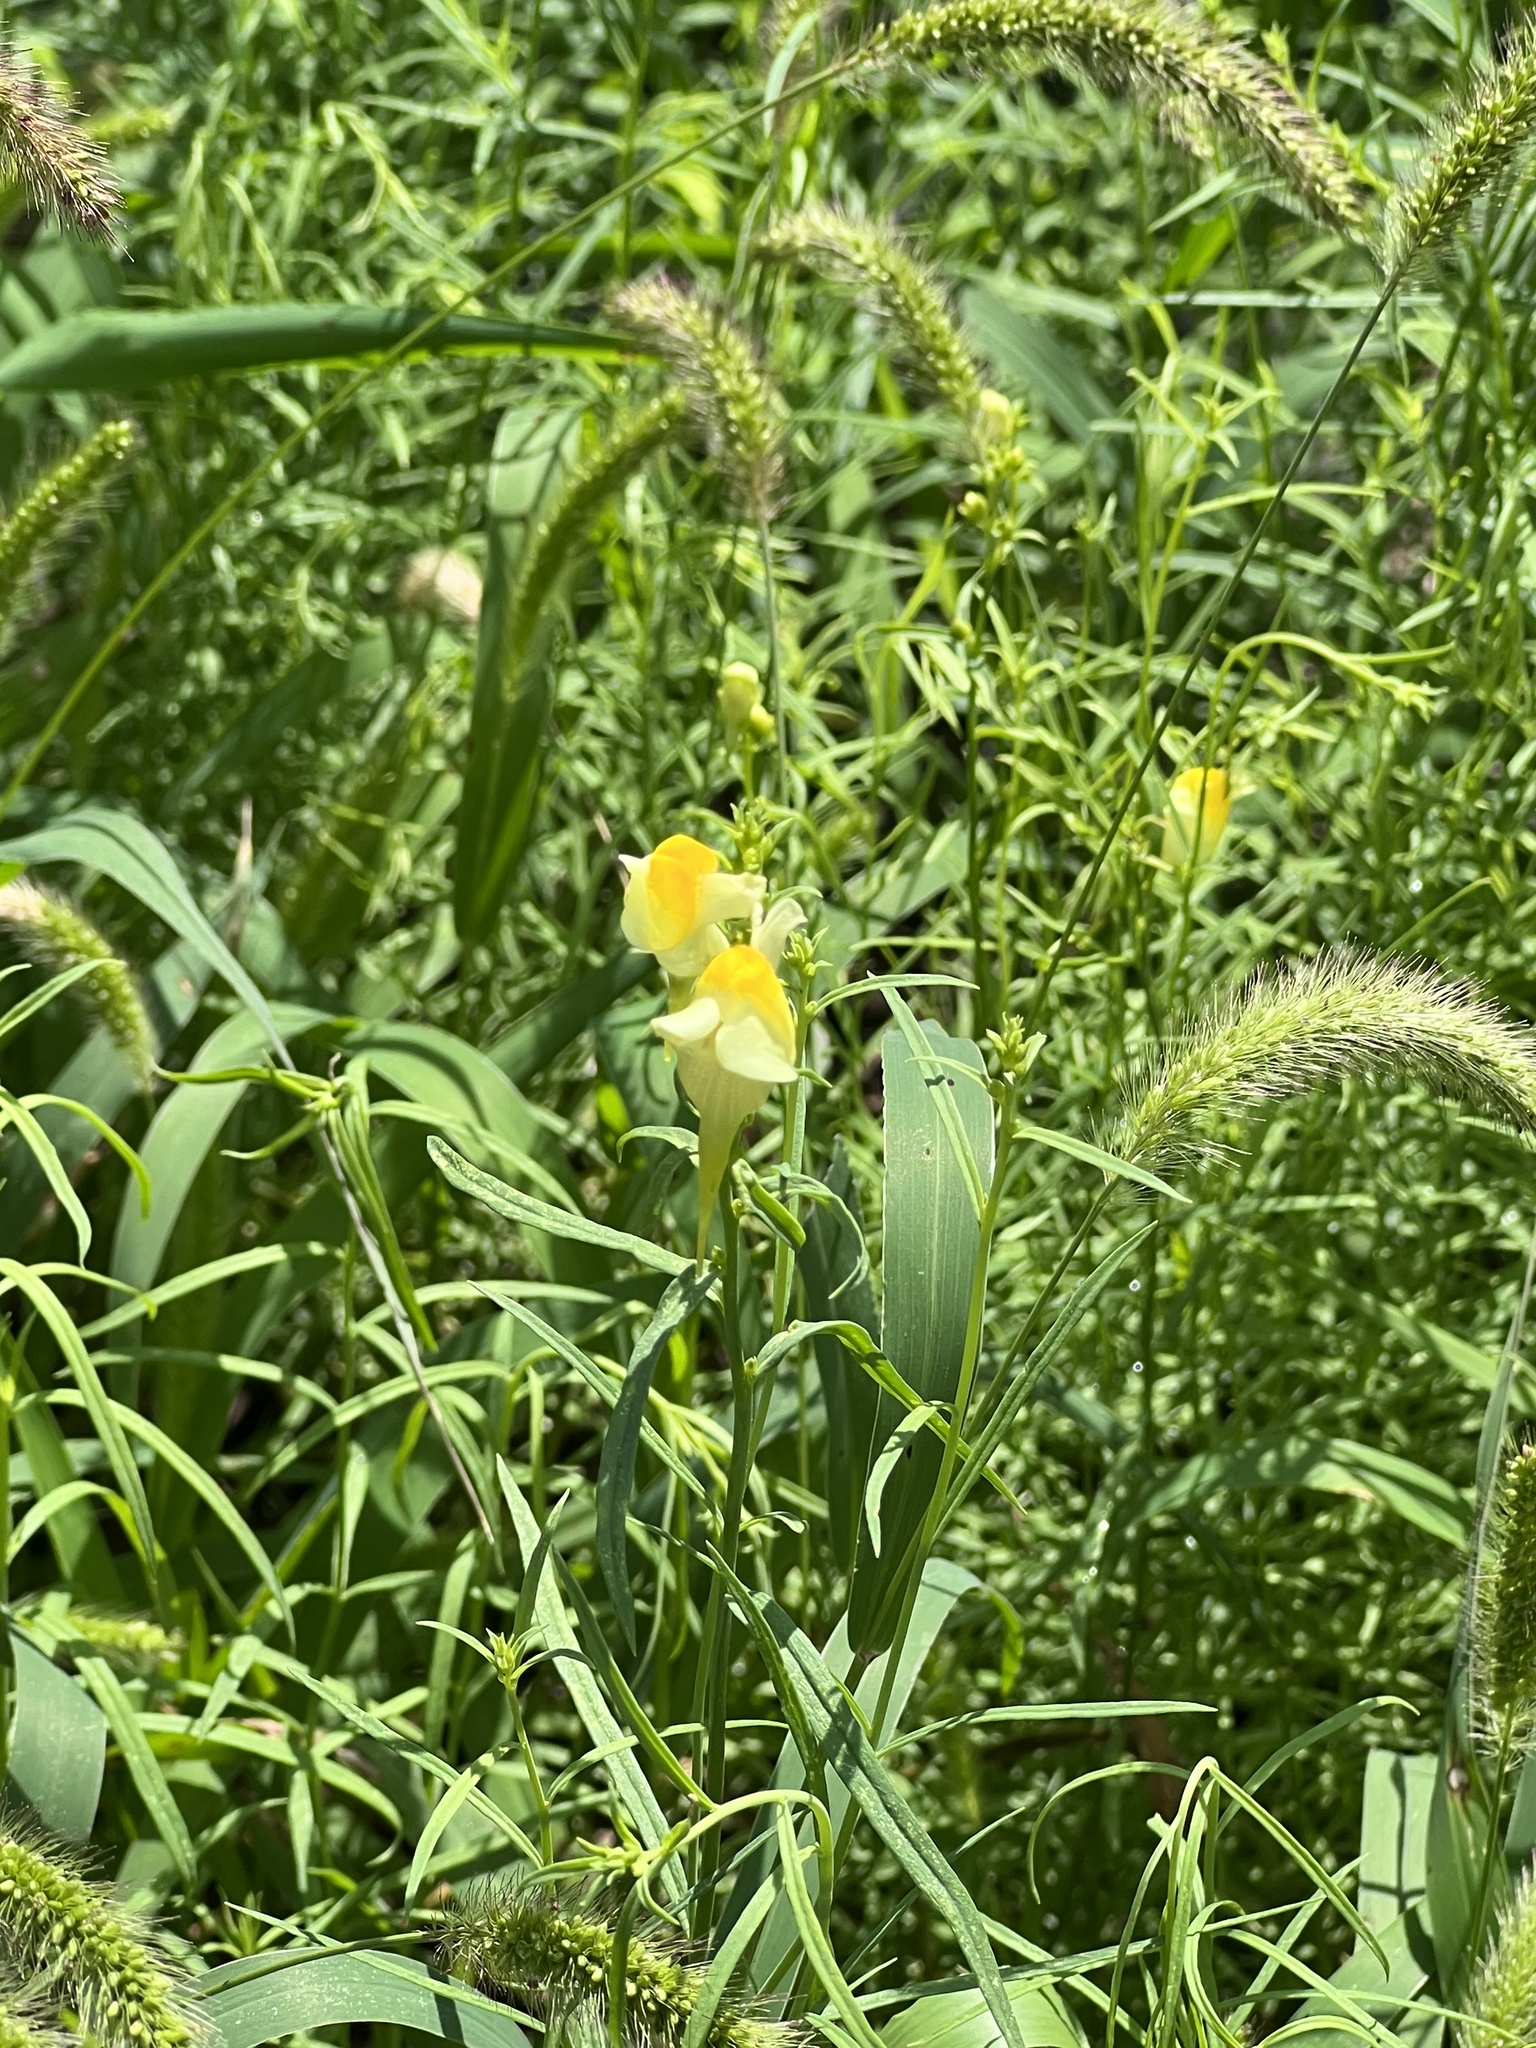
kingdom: Plantae
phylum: Tracheophyta
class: Magnoliopsida
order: Lamiales
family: Plantaginaceae
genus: Linaria
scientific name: Linaria vulgaris
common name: Butter and eggs
